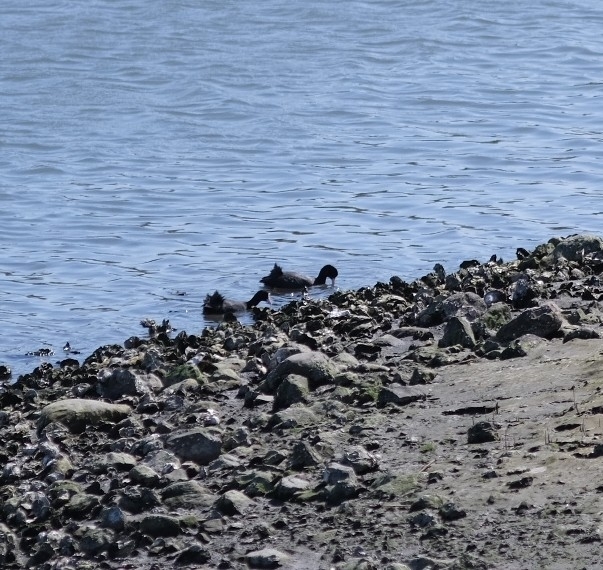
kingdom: Animalia
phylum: Chordata
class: Aves
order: Gruiformes
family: Rallidae
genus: Fulica
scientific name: Fulica atra
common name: Eurasian coot
